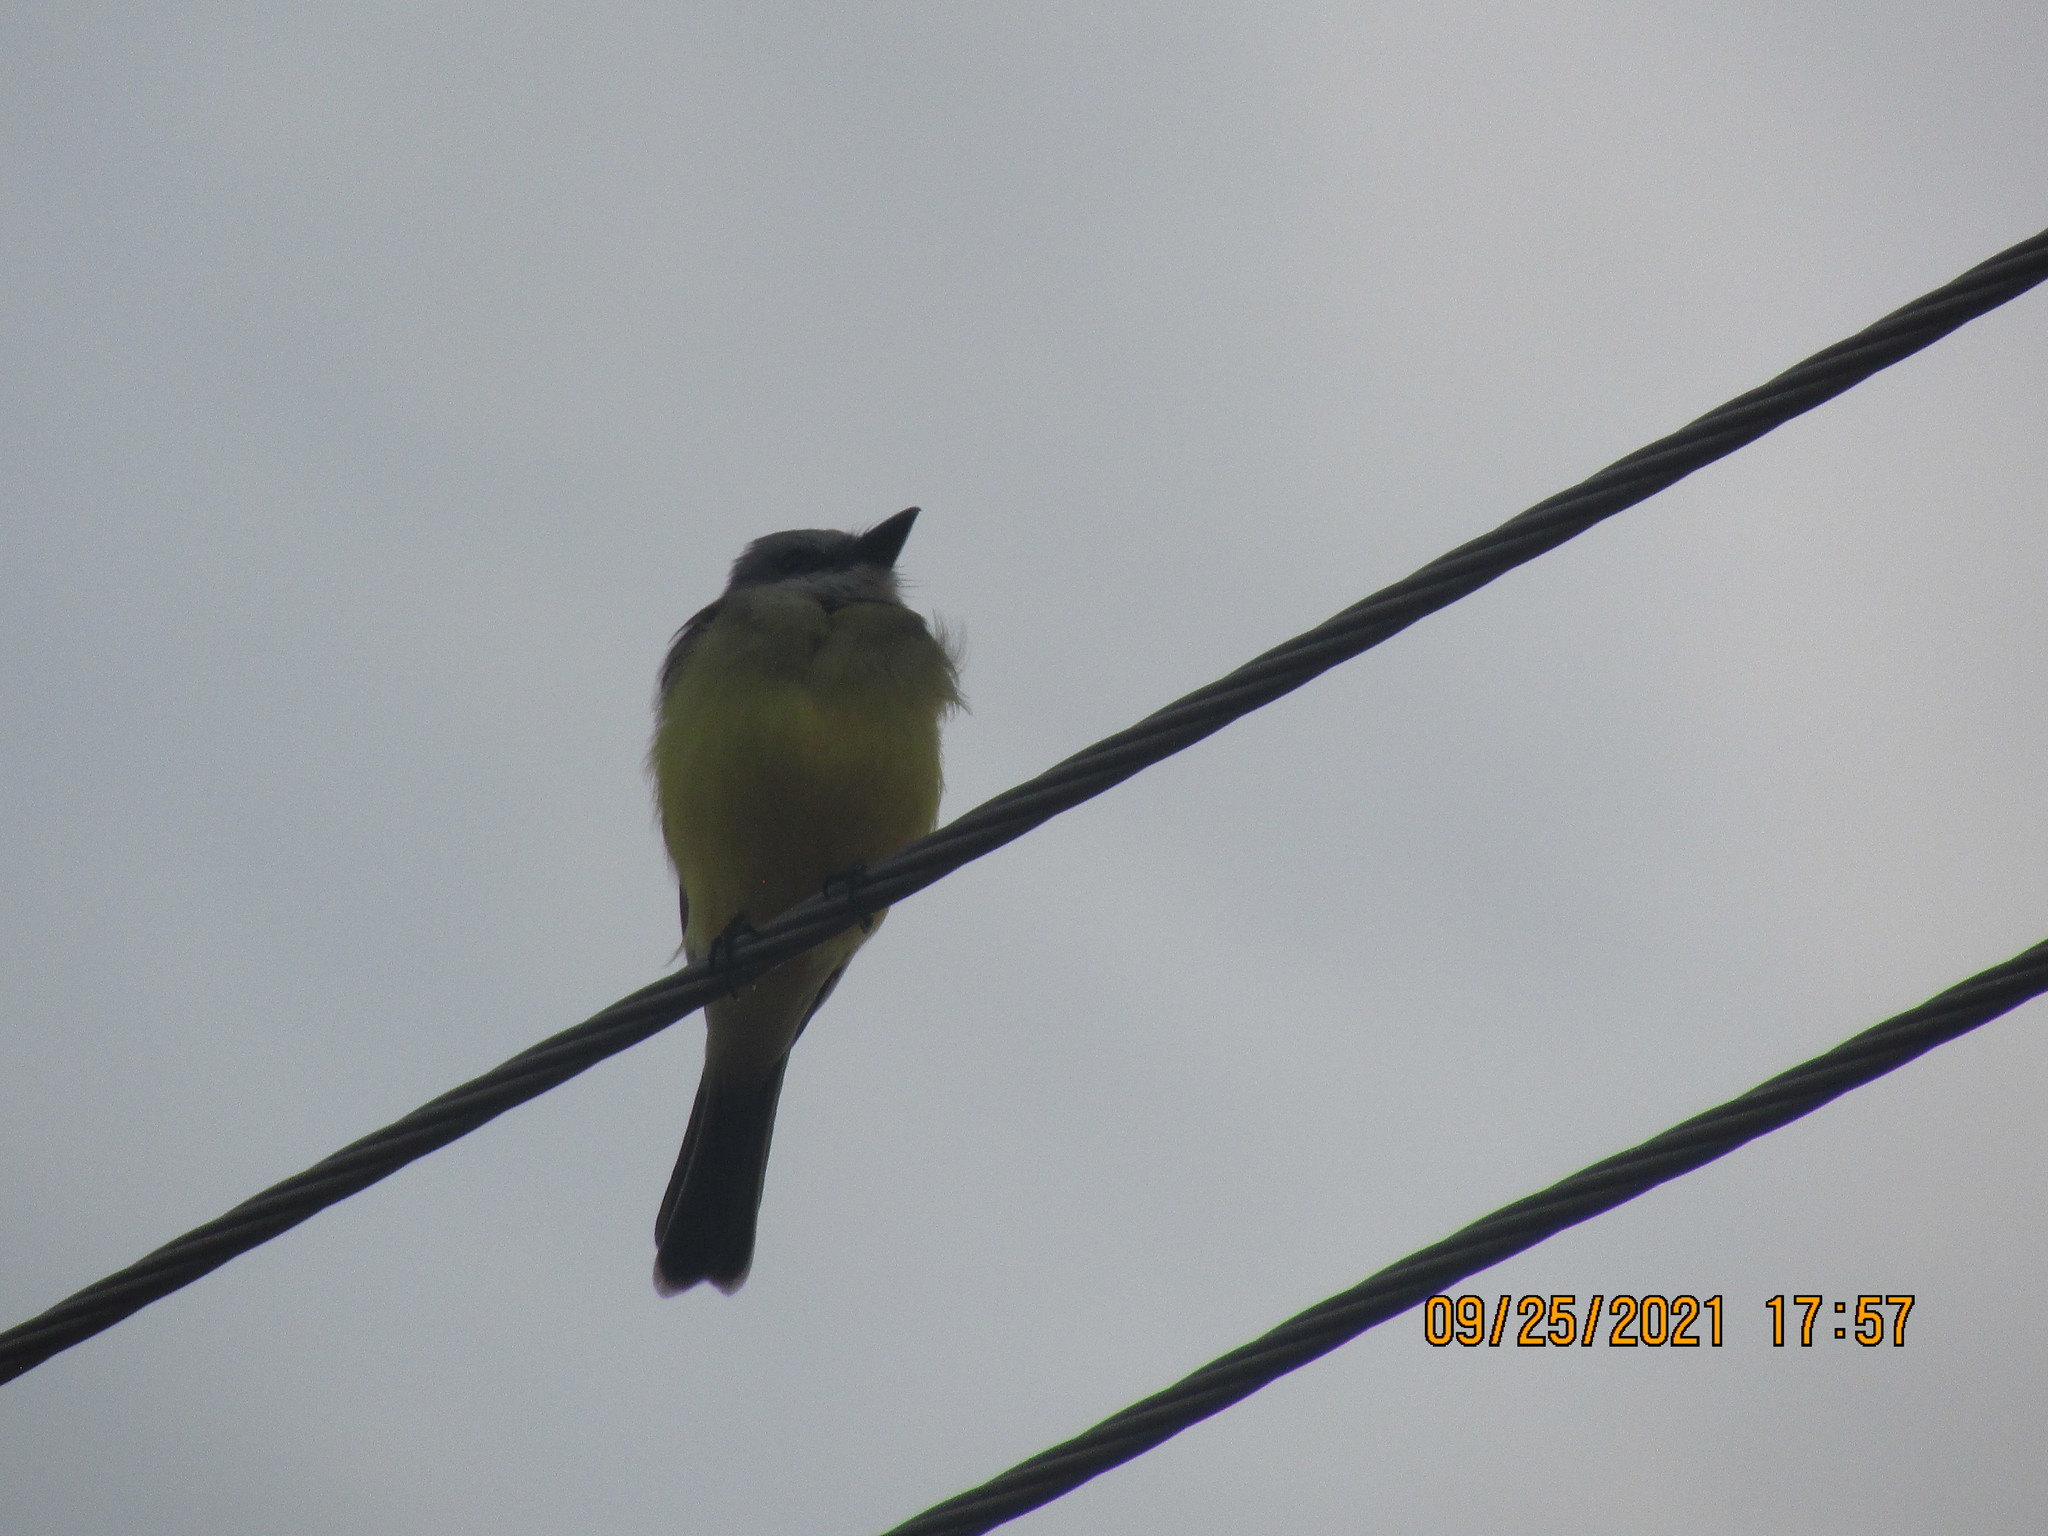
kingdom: Animalia
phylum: Chordata
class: Aves
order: Passeriformes
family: Tyrannidae
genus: Tyrannus
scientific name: Tyrannus melancholicus
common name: Tropical kingbird
